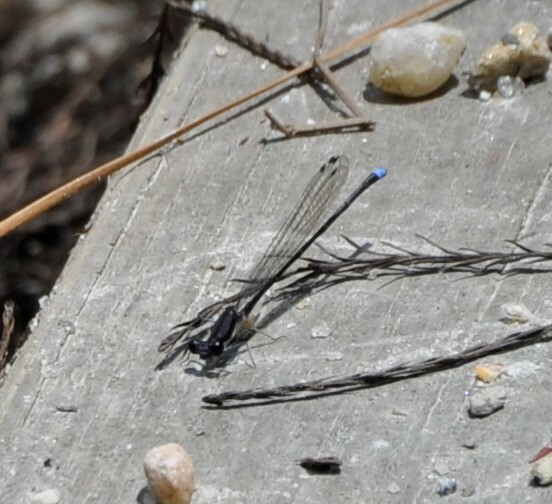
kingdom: Animalia
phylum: Arthropoda
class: Insecta
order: Odonata
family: Coenagrionidae
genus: Argia
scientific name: Argia tibialis
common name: Blue-tipped dancer
